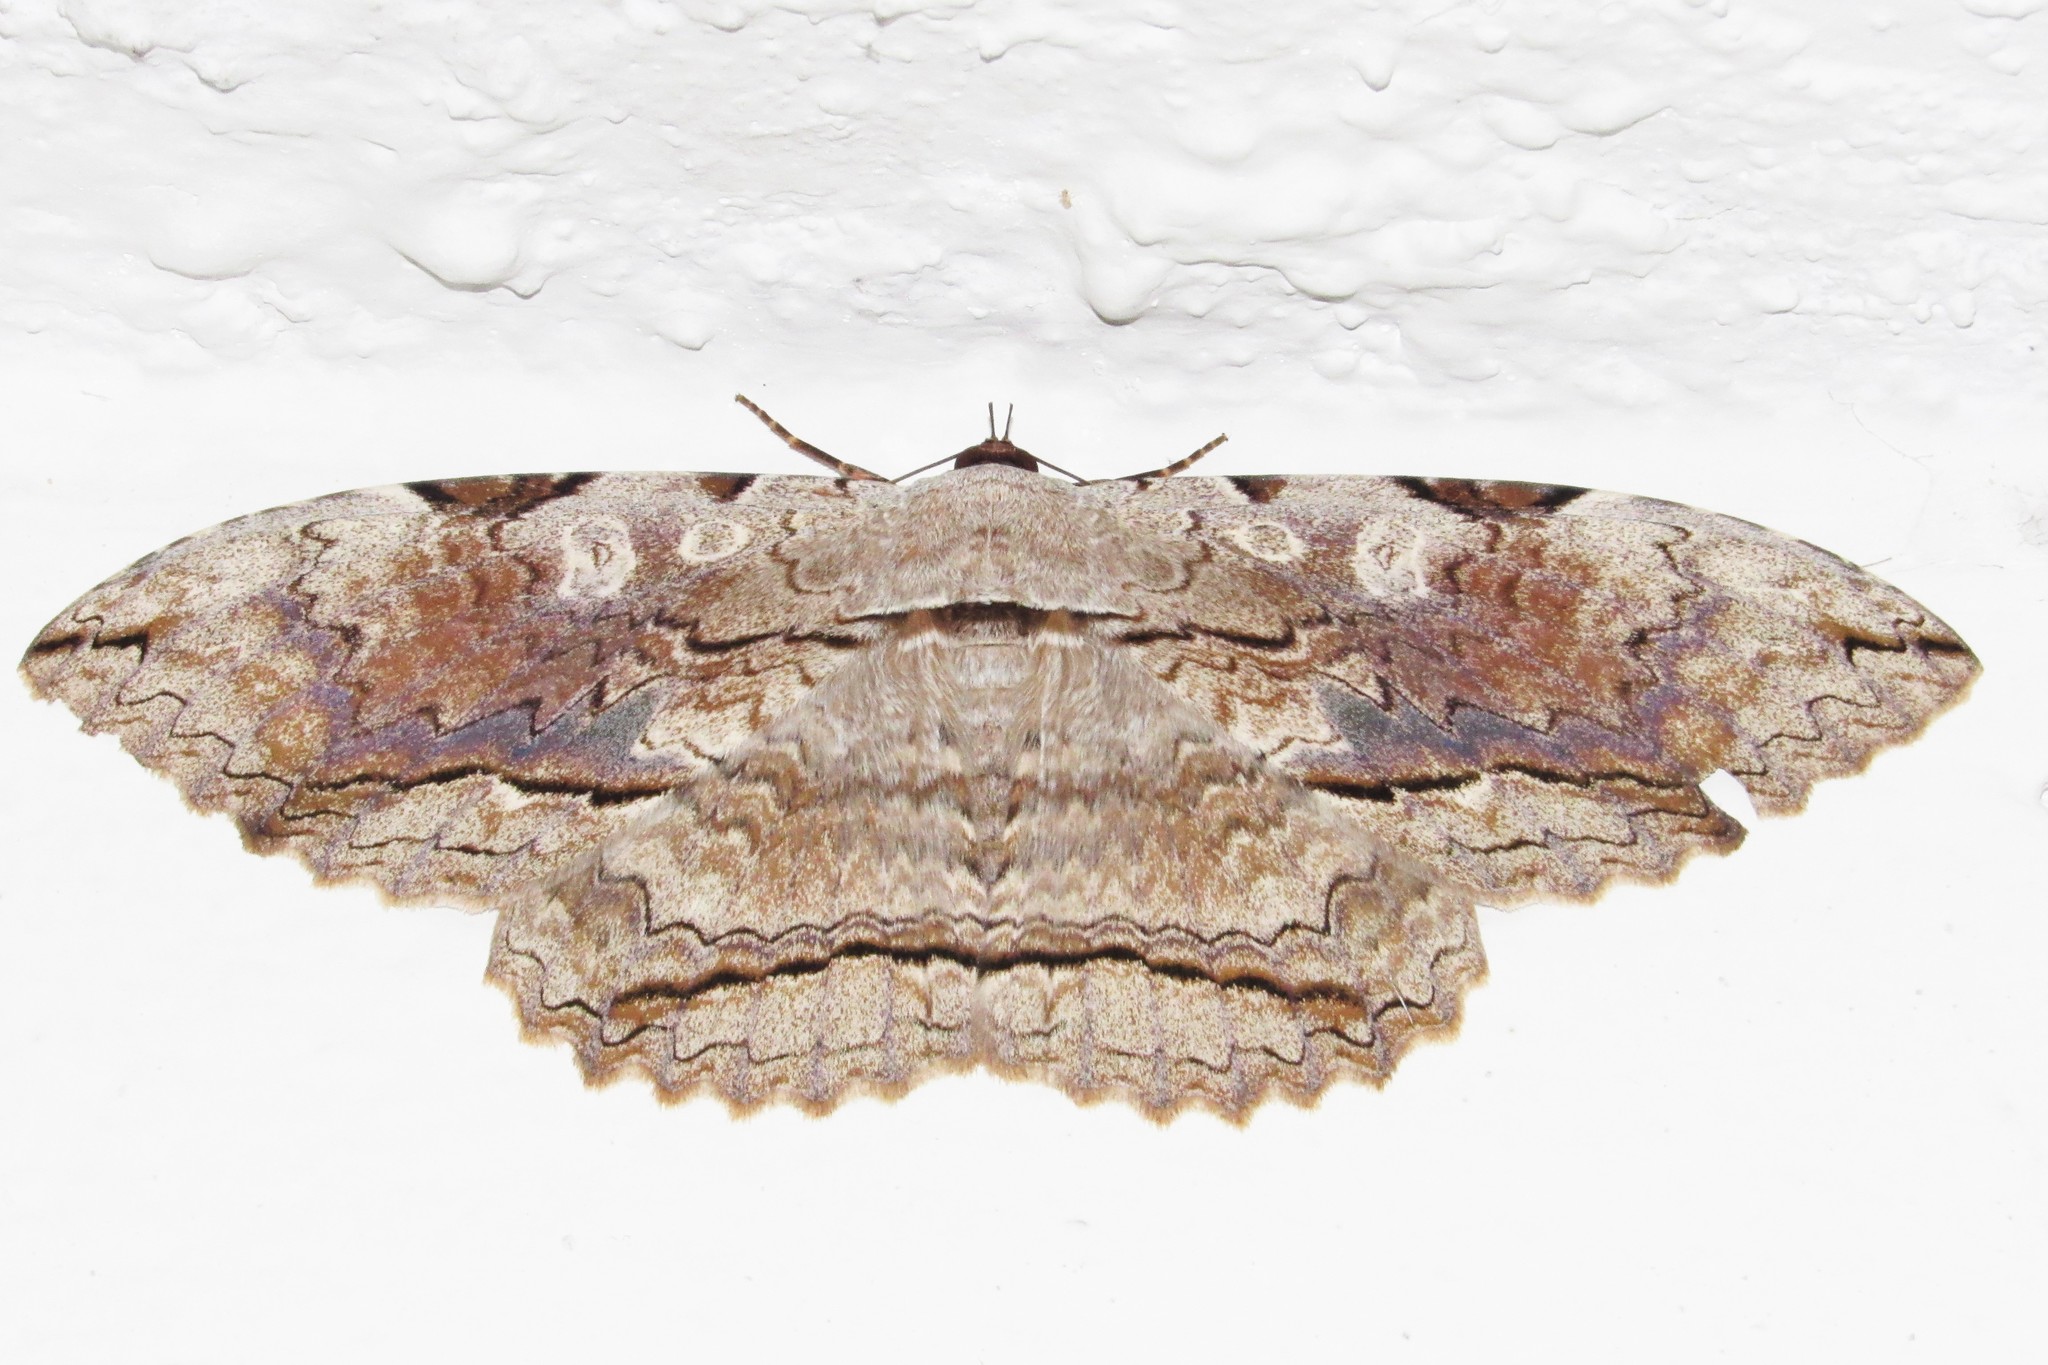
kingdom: Animalia
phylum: Arthropoda
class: Insecta
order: Lepidoptera
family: Erebidae
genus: Thysania
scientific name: Thysania zenobia
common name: Owl moth
